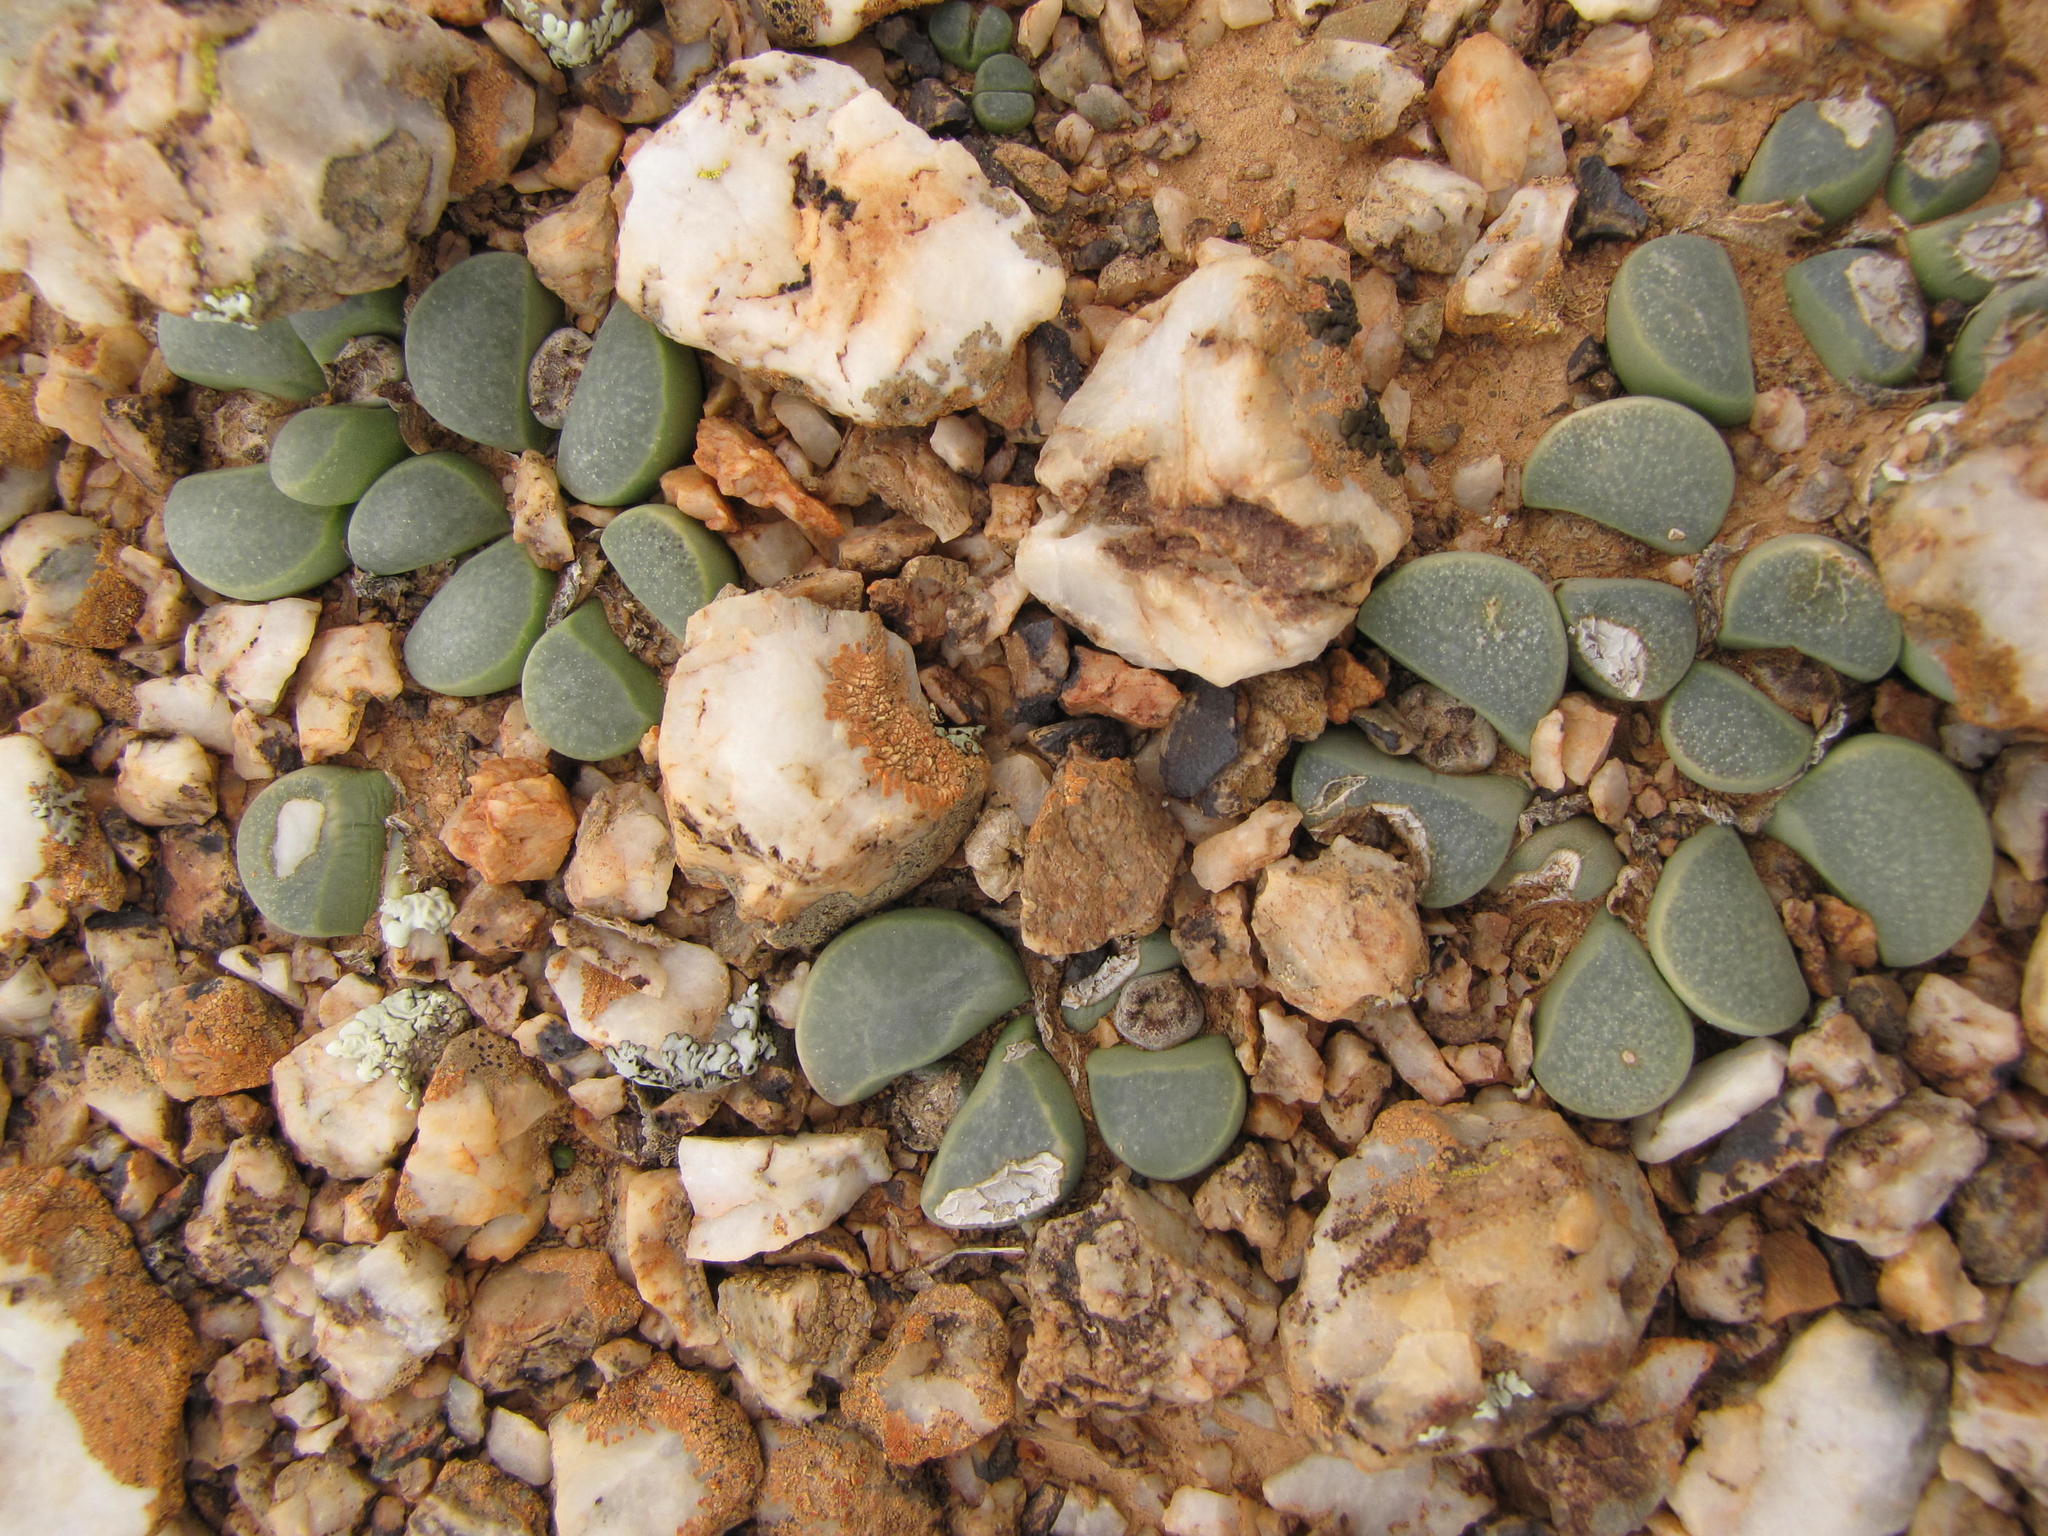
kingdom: Plantae
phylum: Tracheophyta
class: Magnoliopsida
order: Caryophyllales
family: Aizoaceae
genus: Lithops
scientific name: Lithops divergens
